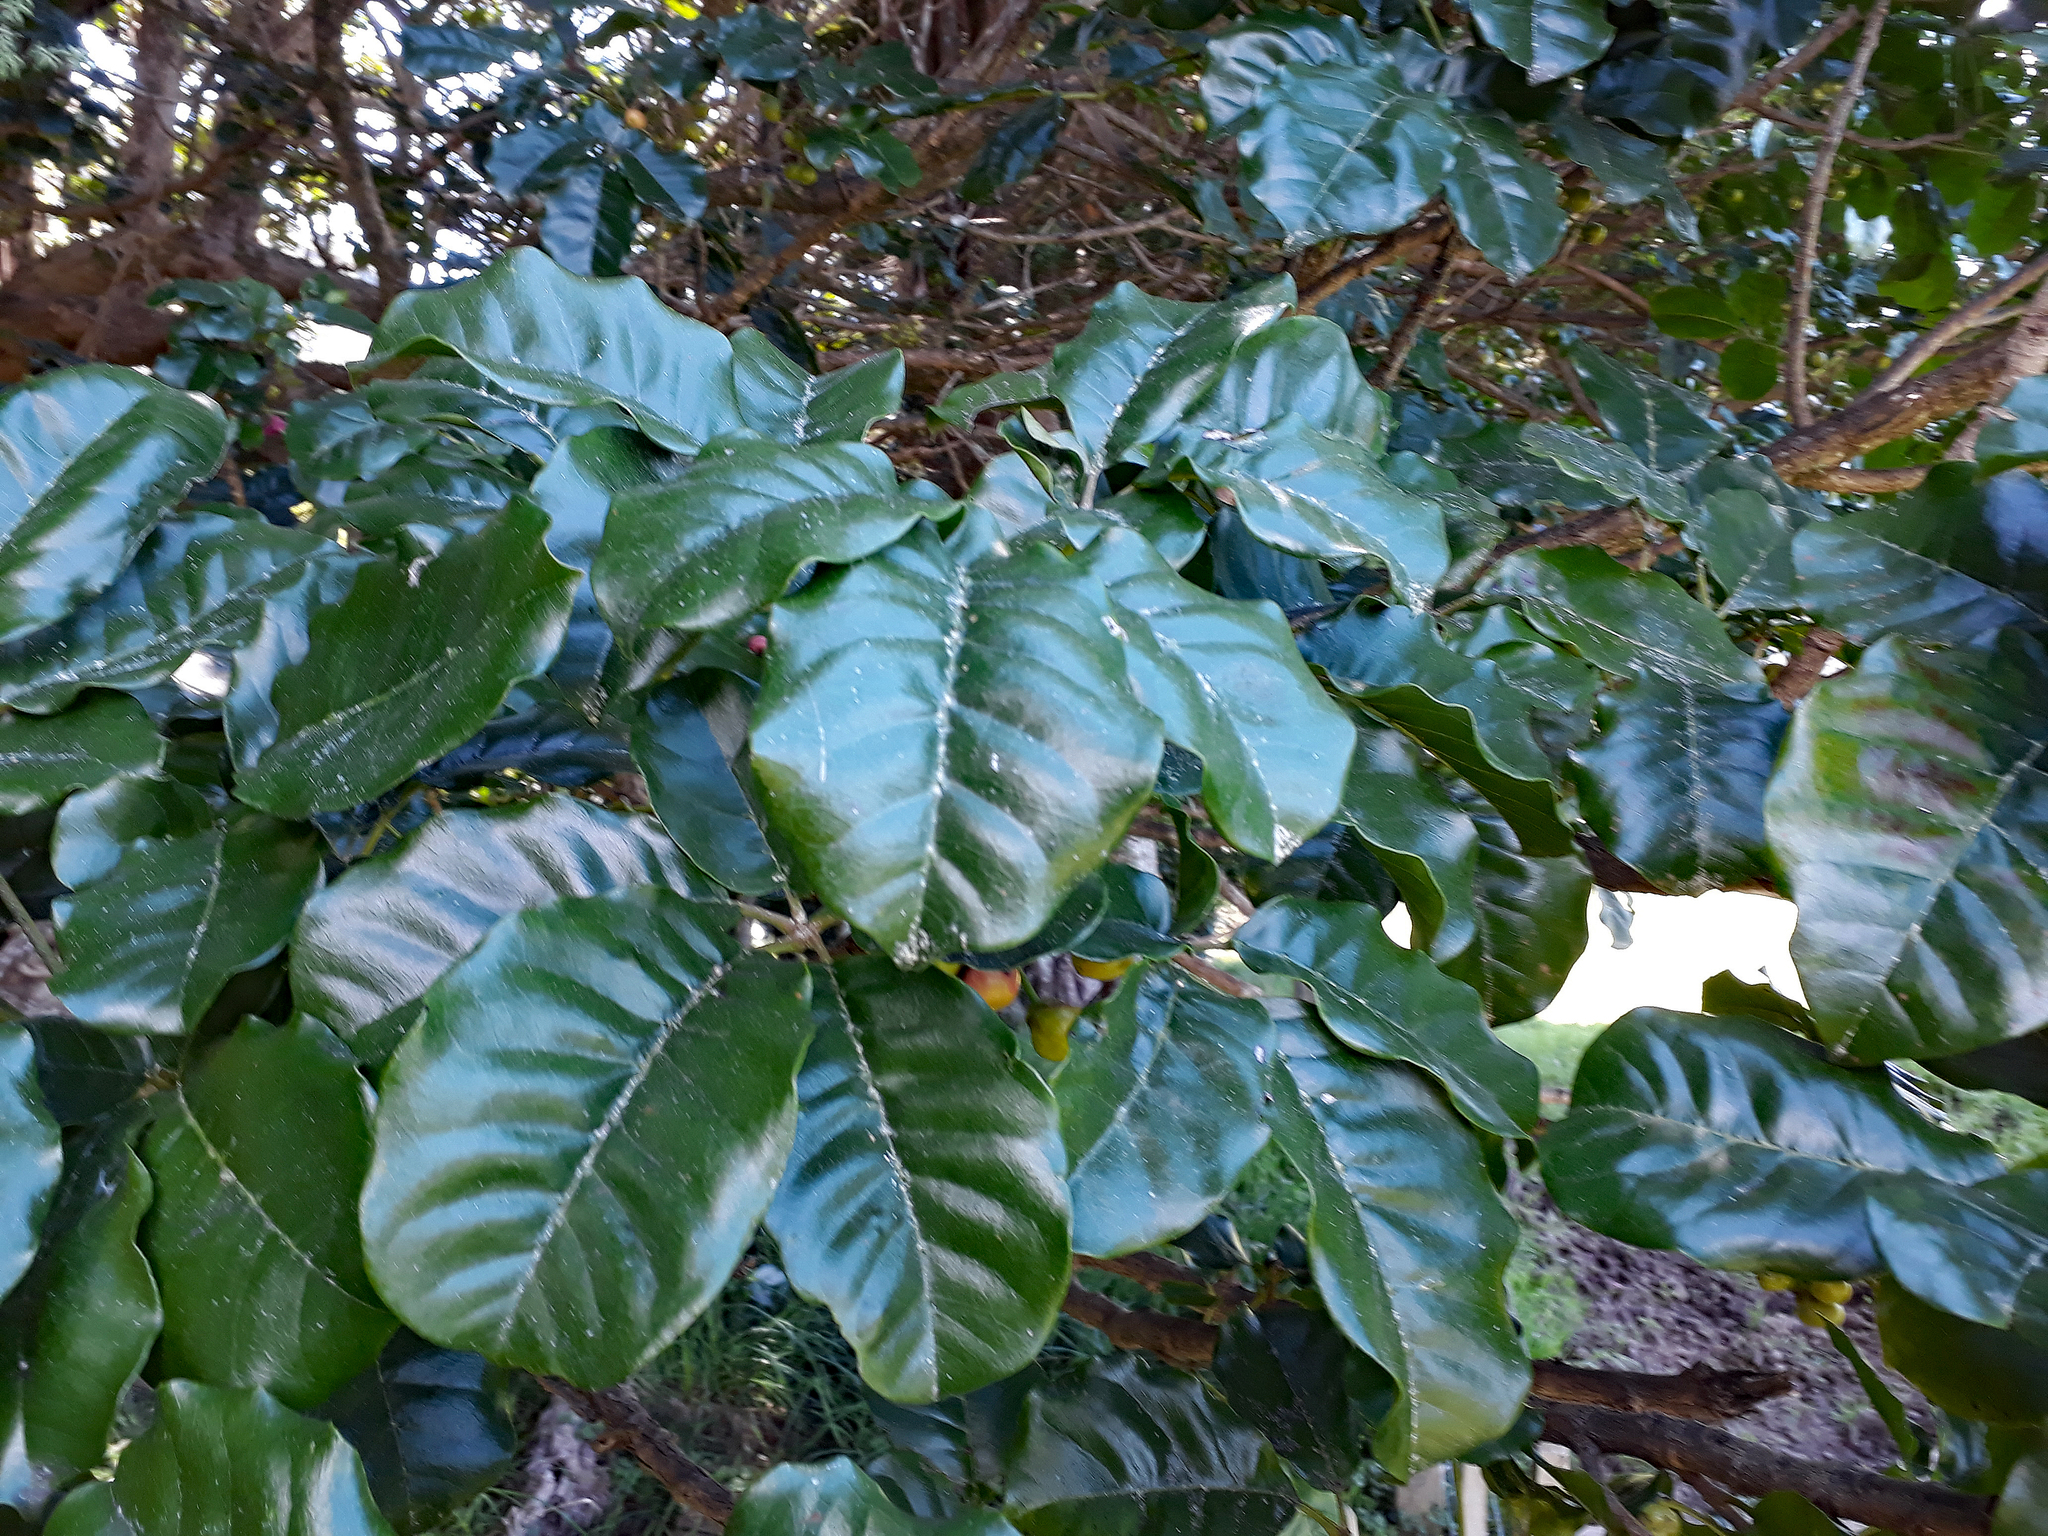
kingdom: Plantae
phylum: Tracheophyta
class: Magnoliopsida
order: Lamiales
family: Lamiaceae
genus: Vitex
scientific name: Vitex lucens
